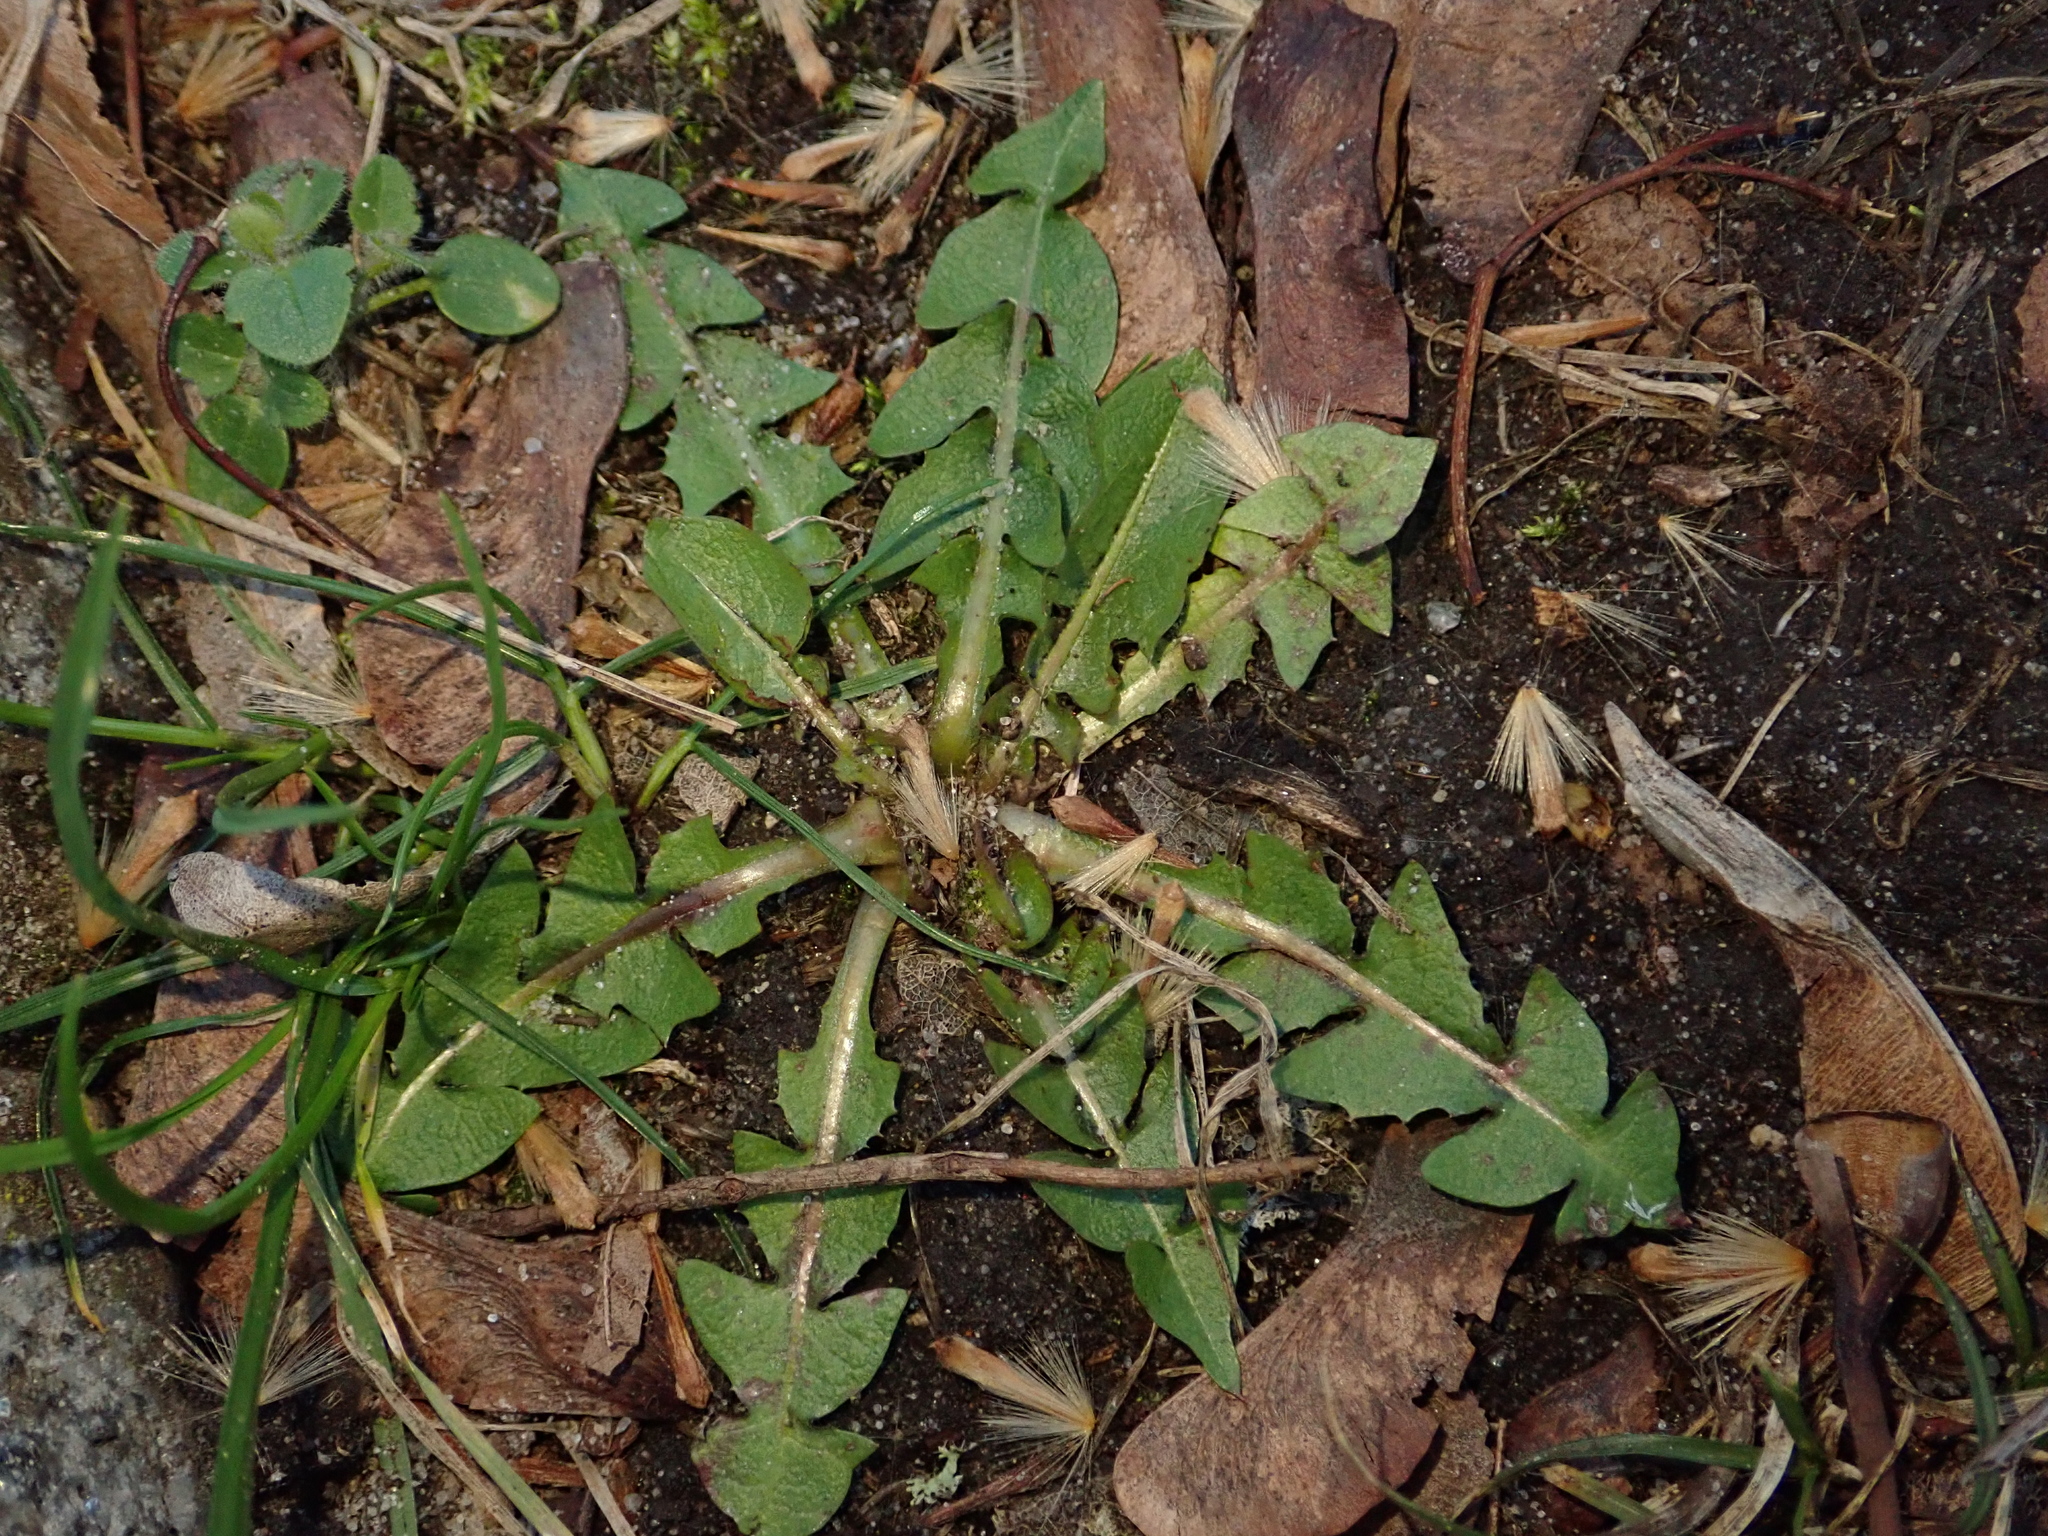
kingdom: Plantae
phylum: Tracheophyta
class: Magnoliopsida
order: Asterales
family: Asteraceae
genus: Taraxacum
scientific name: Taraxacum officinale
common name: Common dandelion
